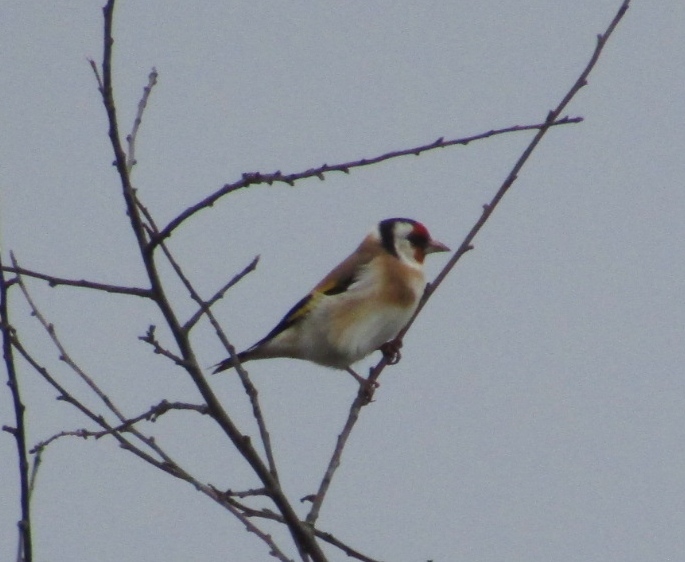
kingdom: Animalia
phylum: Chordata
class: Aves
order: Passeriformes
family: Fringillidae
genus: Carduelis
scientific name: Carduelis carduelis
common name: European goldfinch
